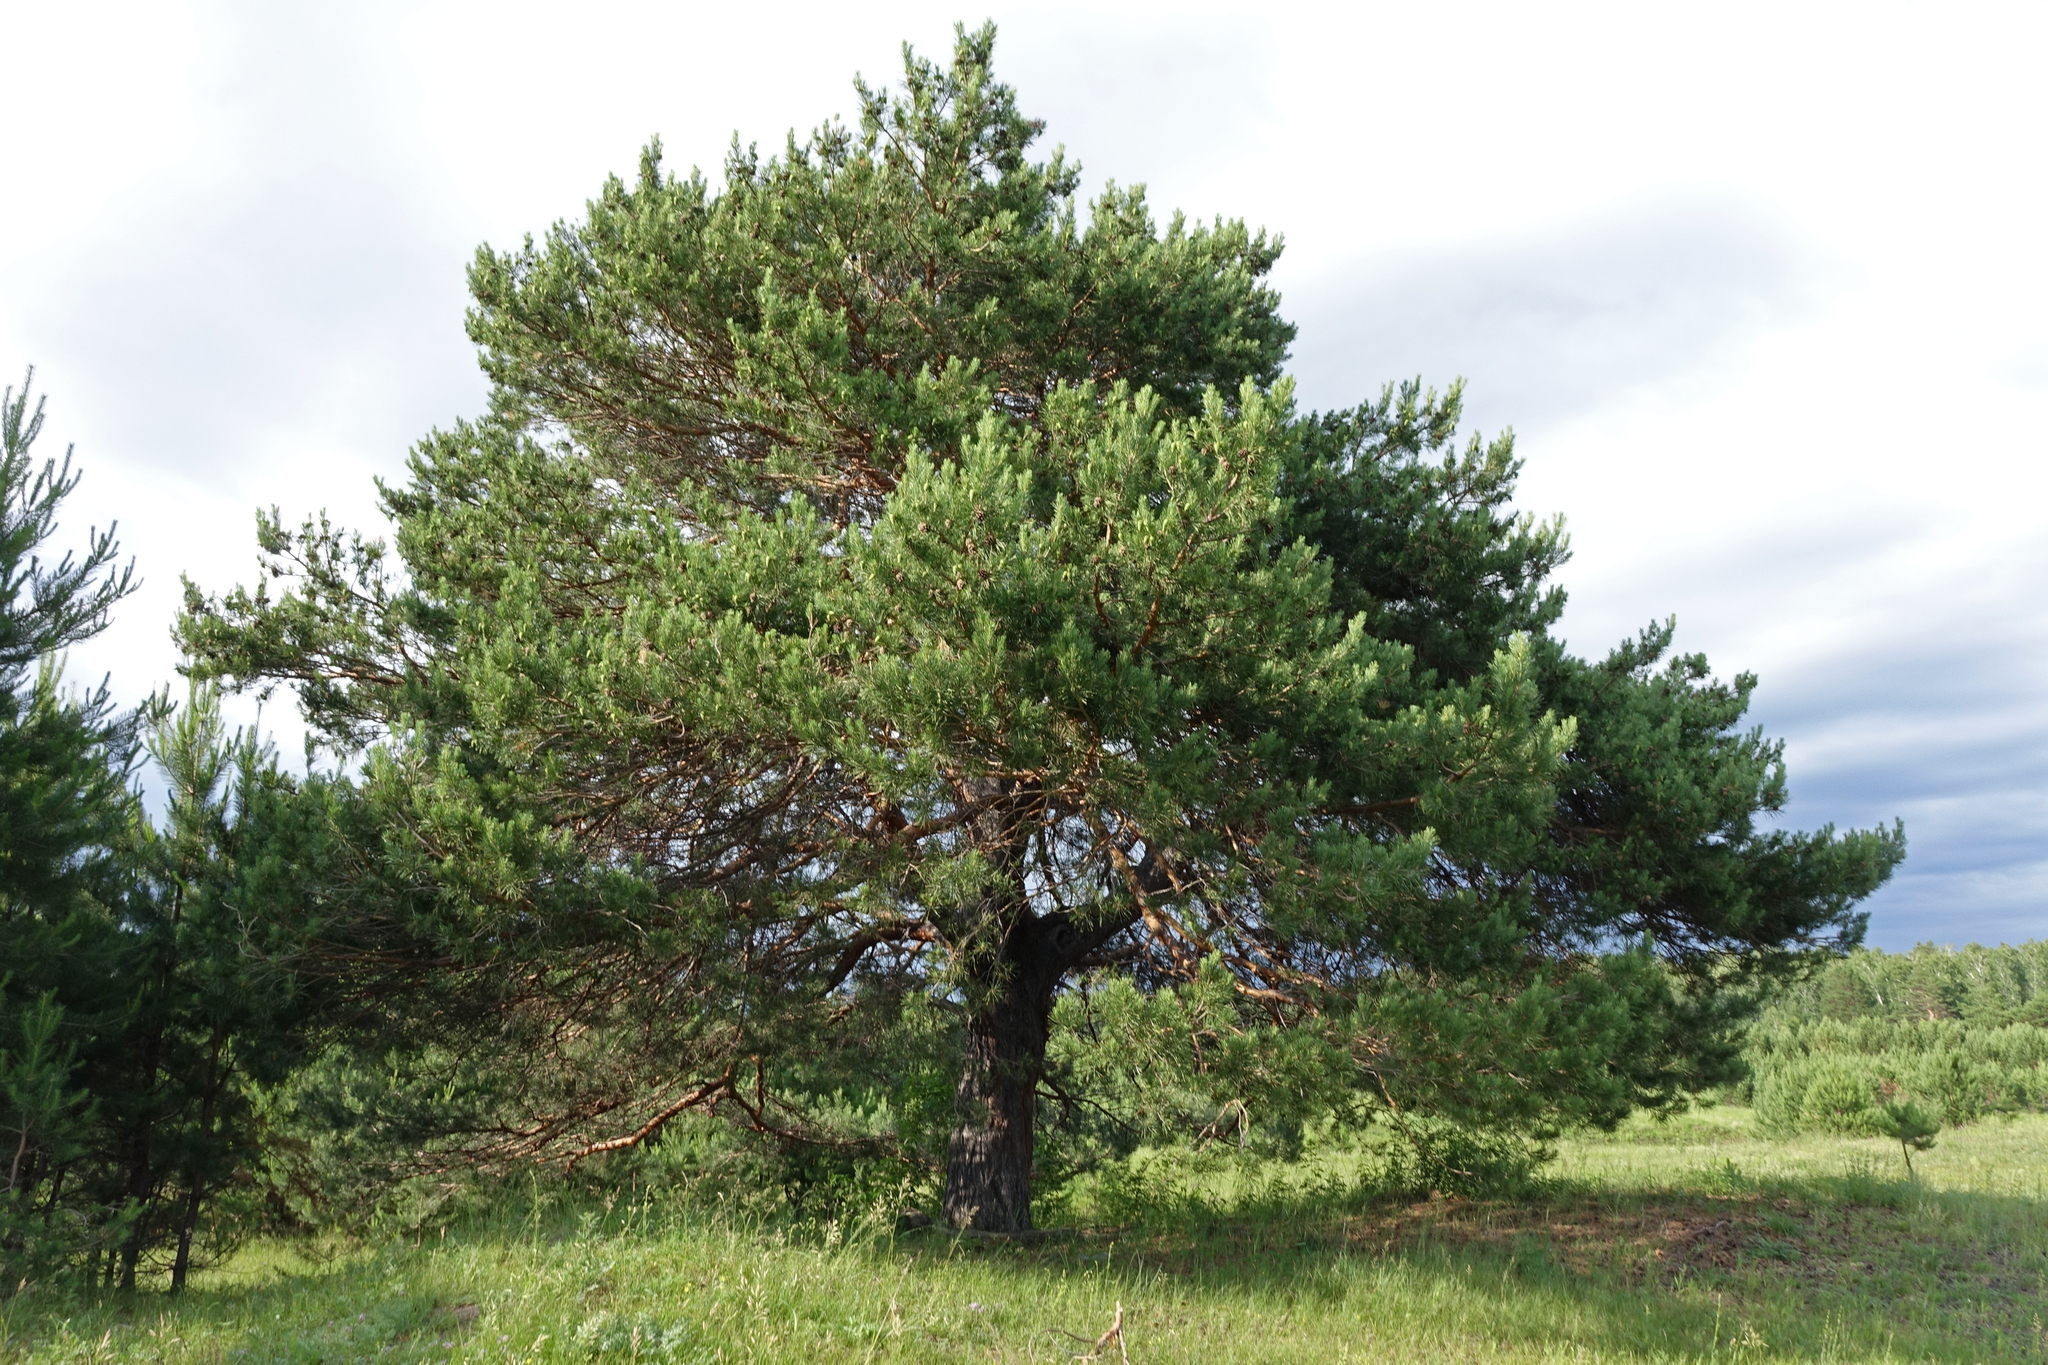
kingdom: Plantae
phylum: Tracheophyta
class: Pinopsida
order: Pinales
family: Pinaceae
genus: Pinus
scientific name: Pinus sylvestris
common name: Scots pine
